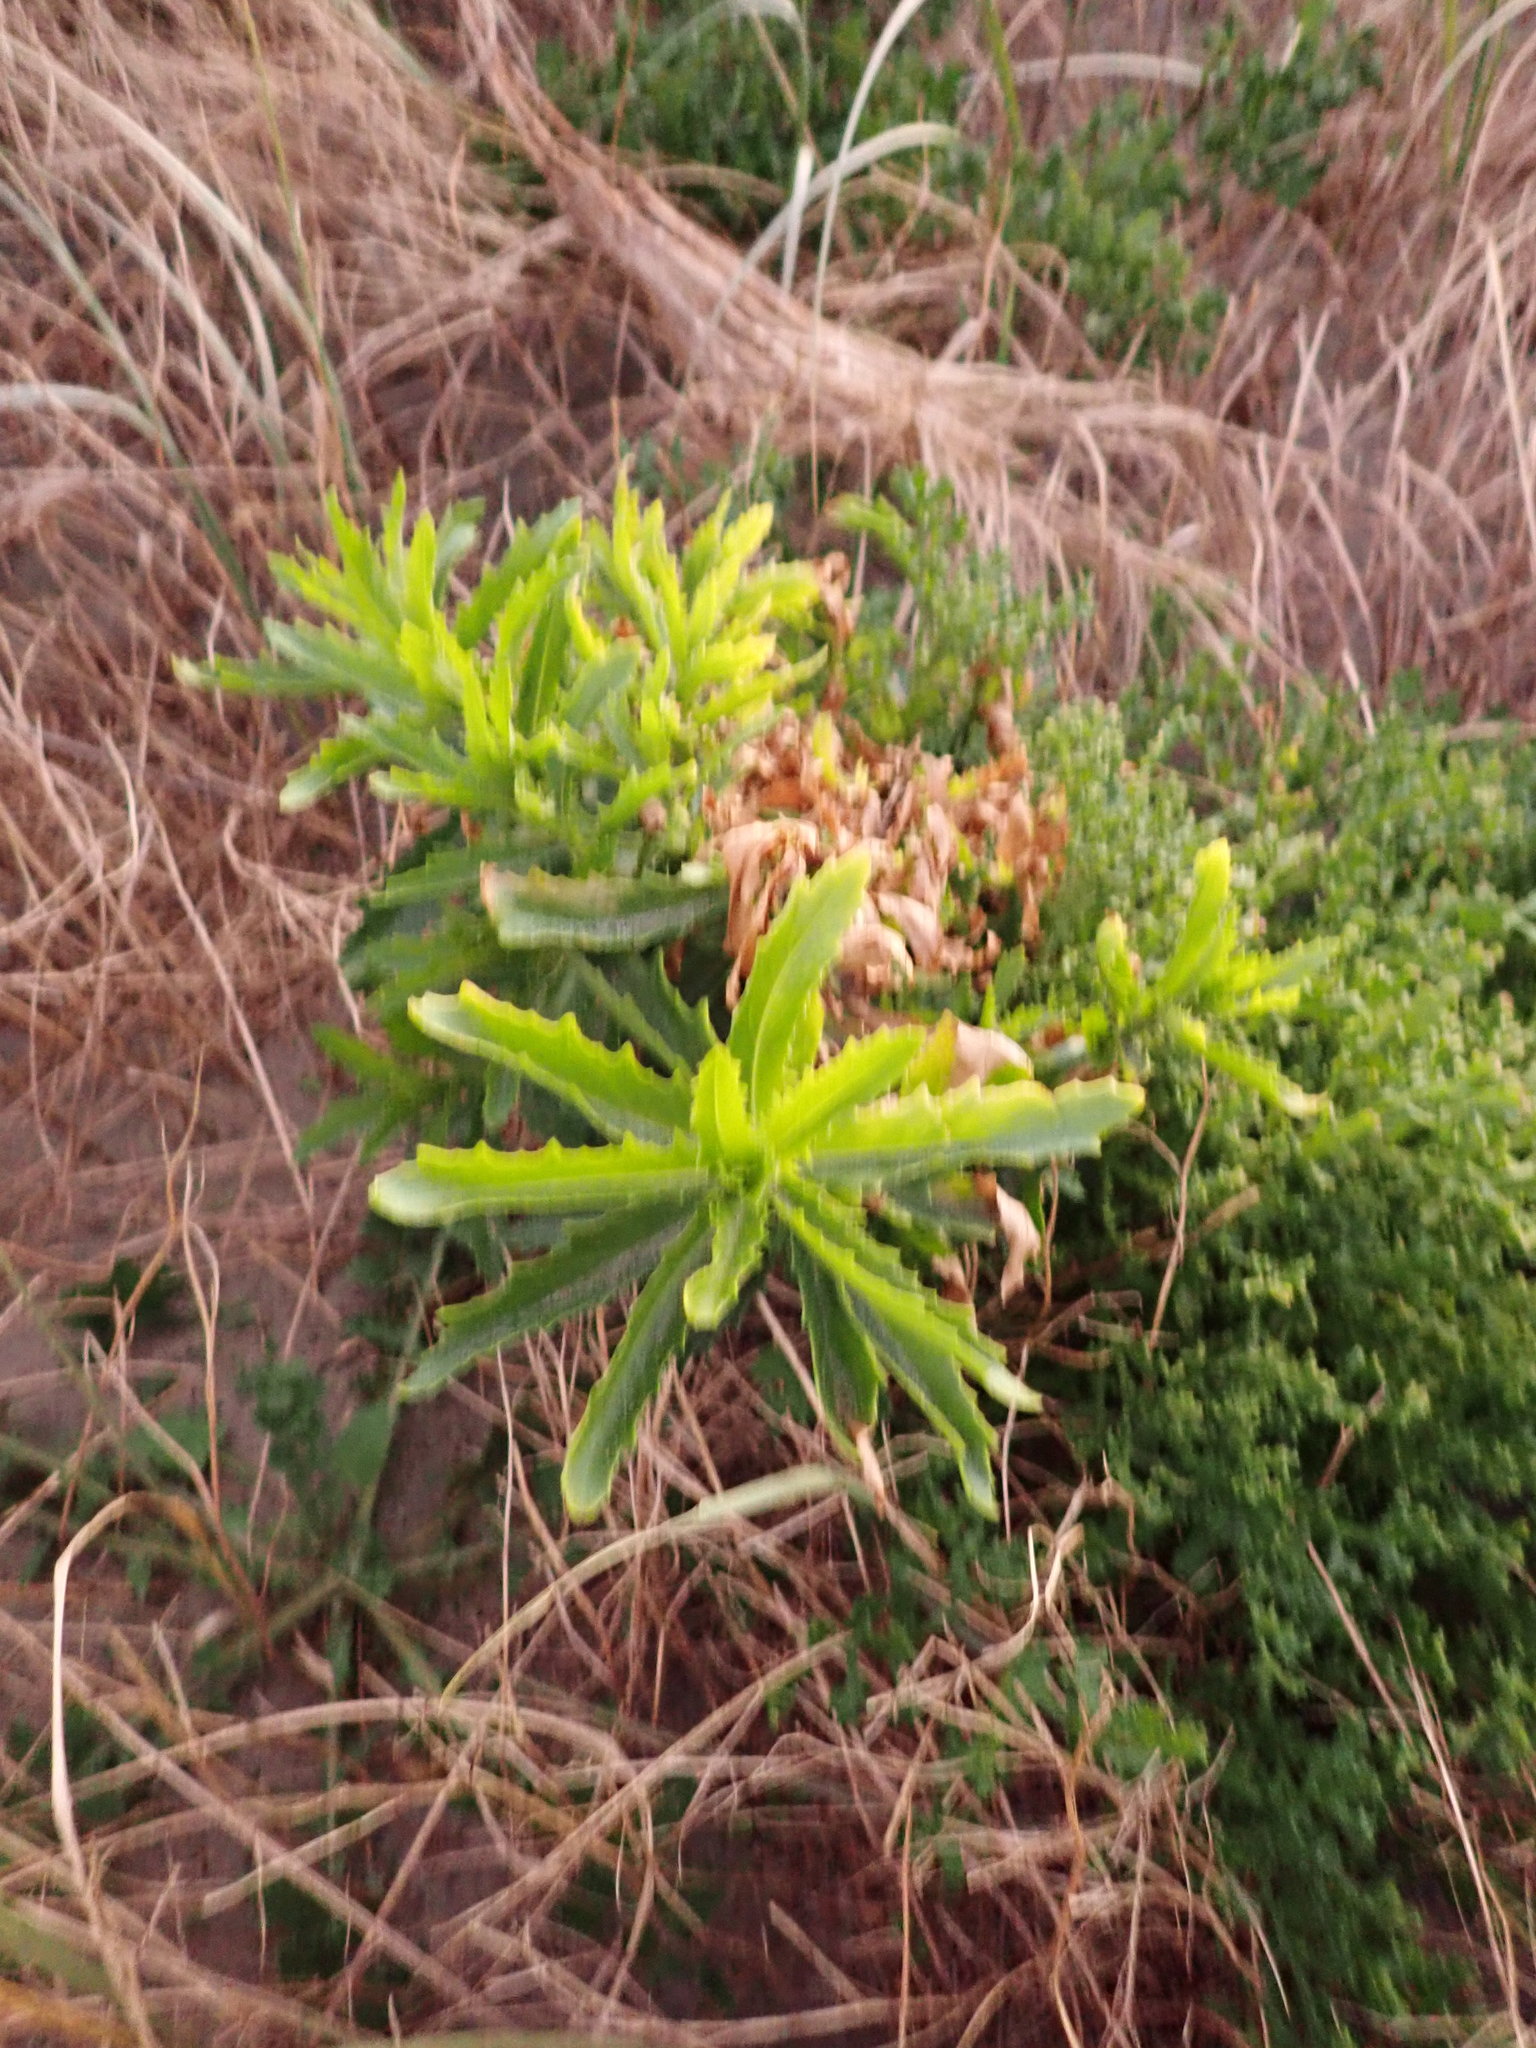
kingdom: Plantae
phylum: Tracheophyta
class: Magnoliopsida
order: Asterales
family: Asteraceae
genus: Senecio
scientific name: Senecio glastifolius
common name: Woad-leaved ragwort
